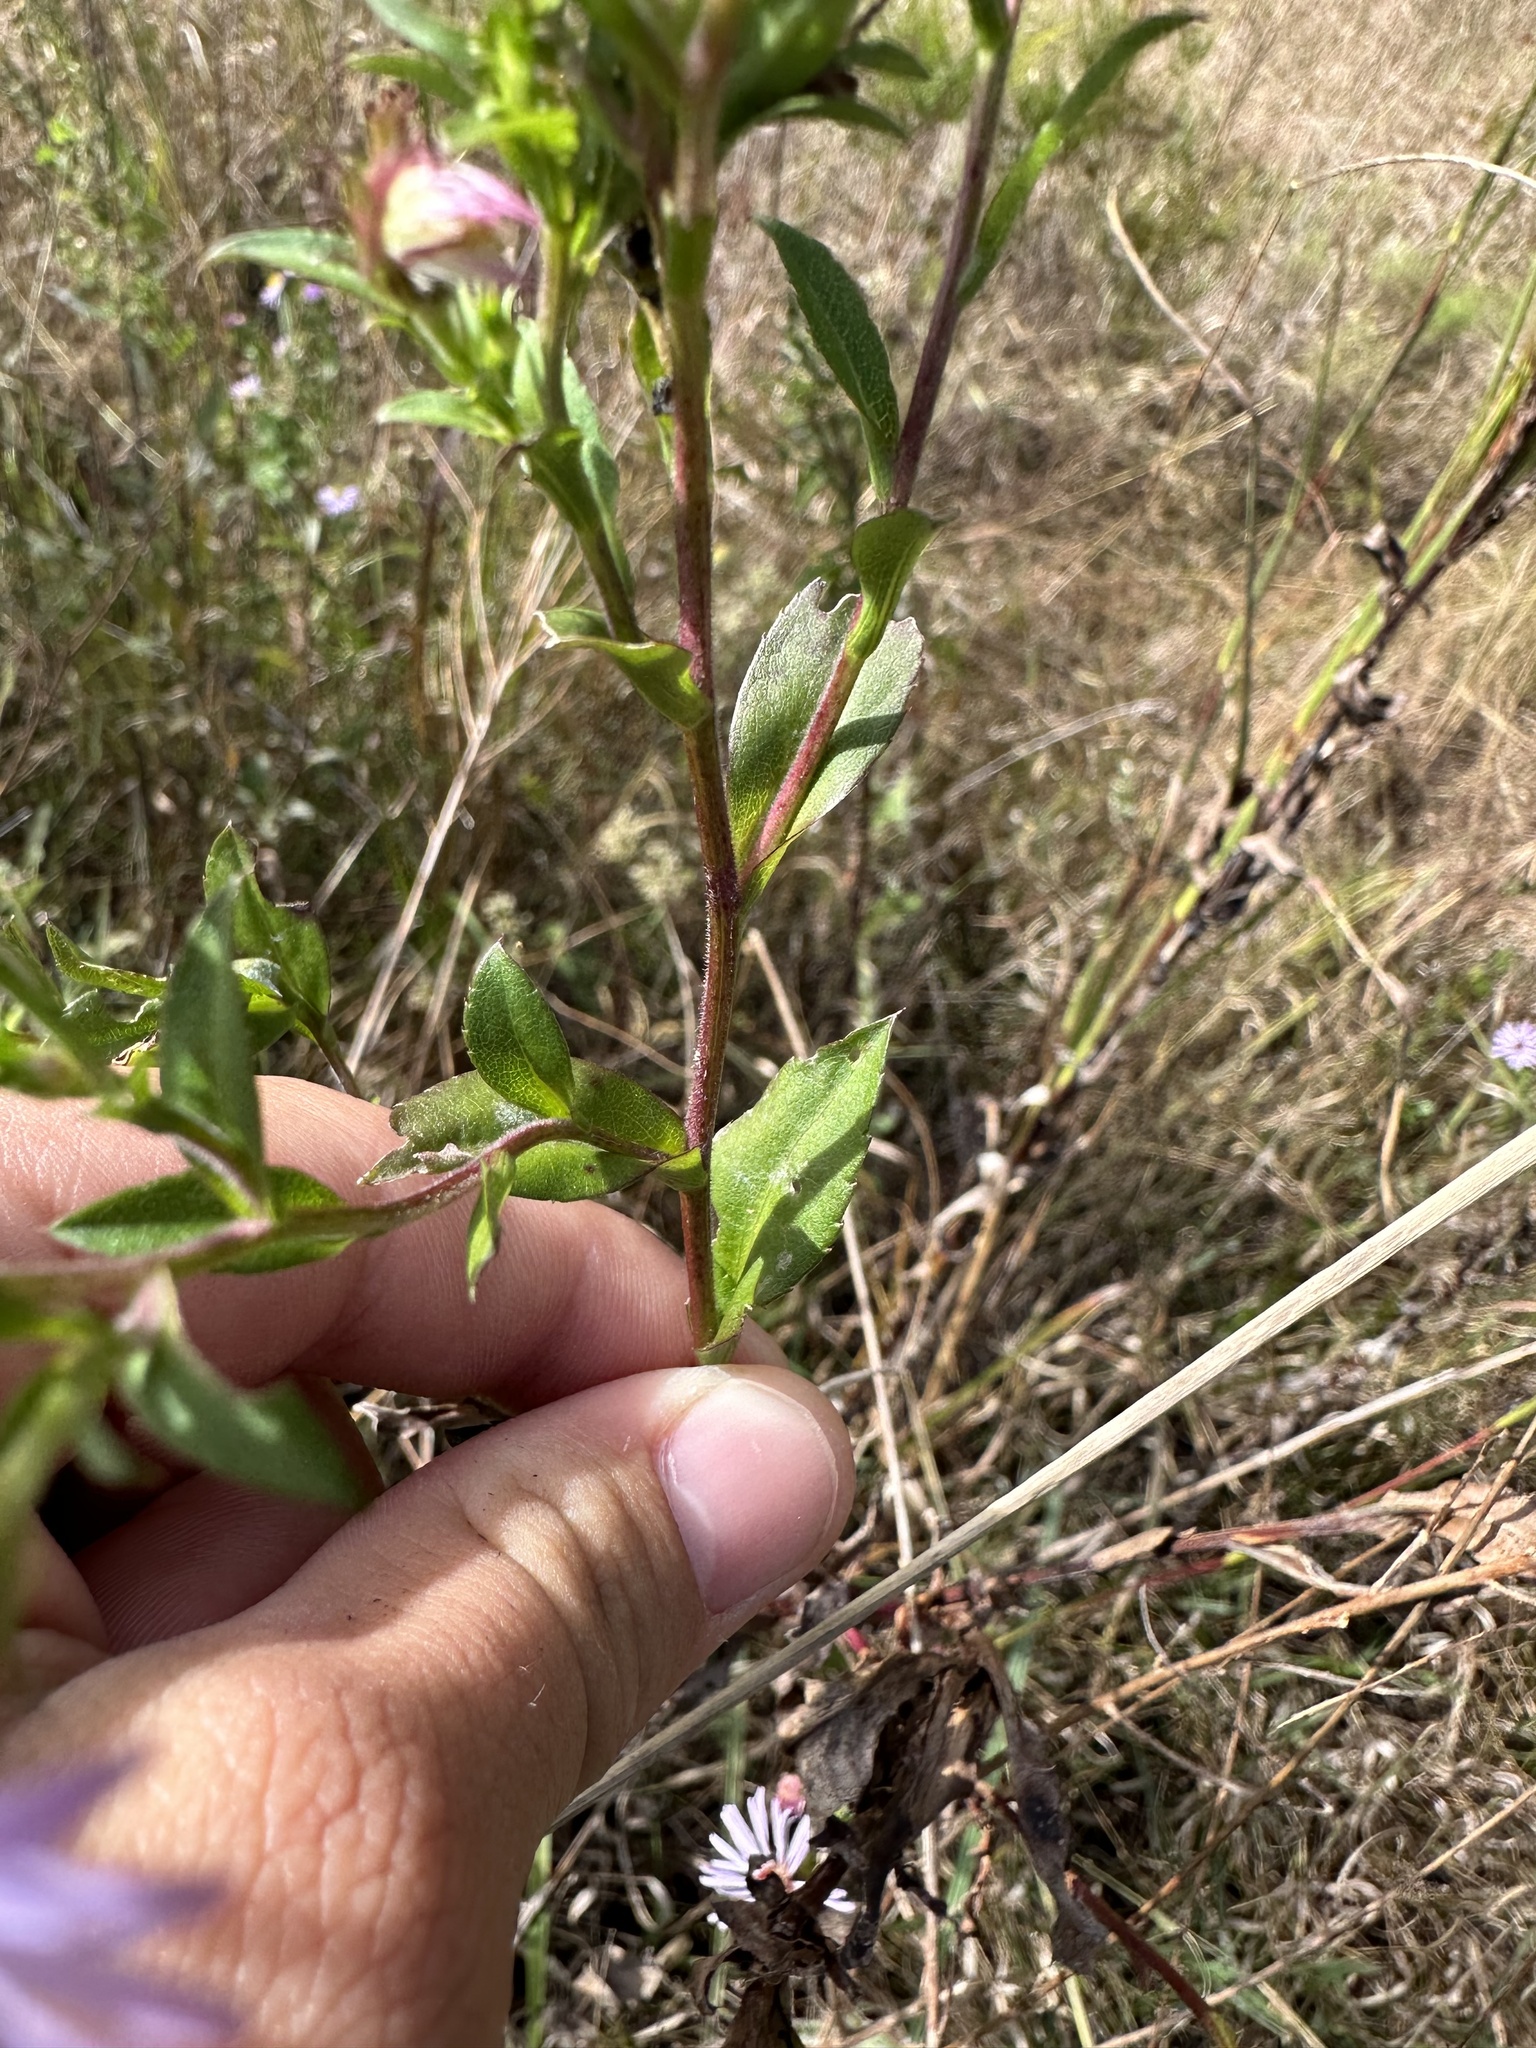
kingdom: Plantae
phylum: Tracheophyta
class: Magnoliopsida
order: Asterales
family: Asteraceae
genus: Symphyotrichum
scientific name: Symphyotrichum elliottii
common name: Southern swamp aster
